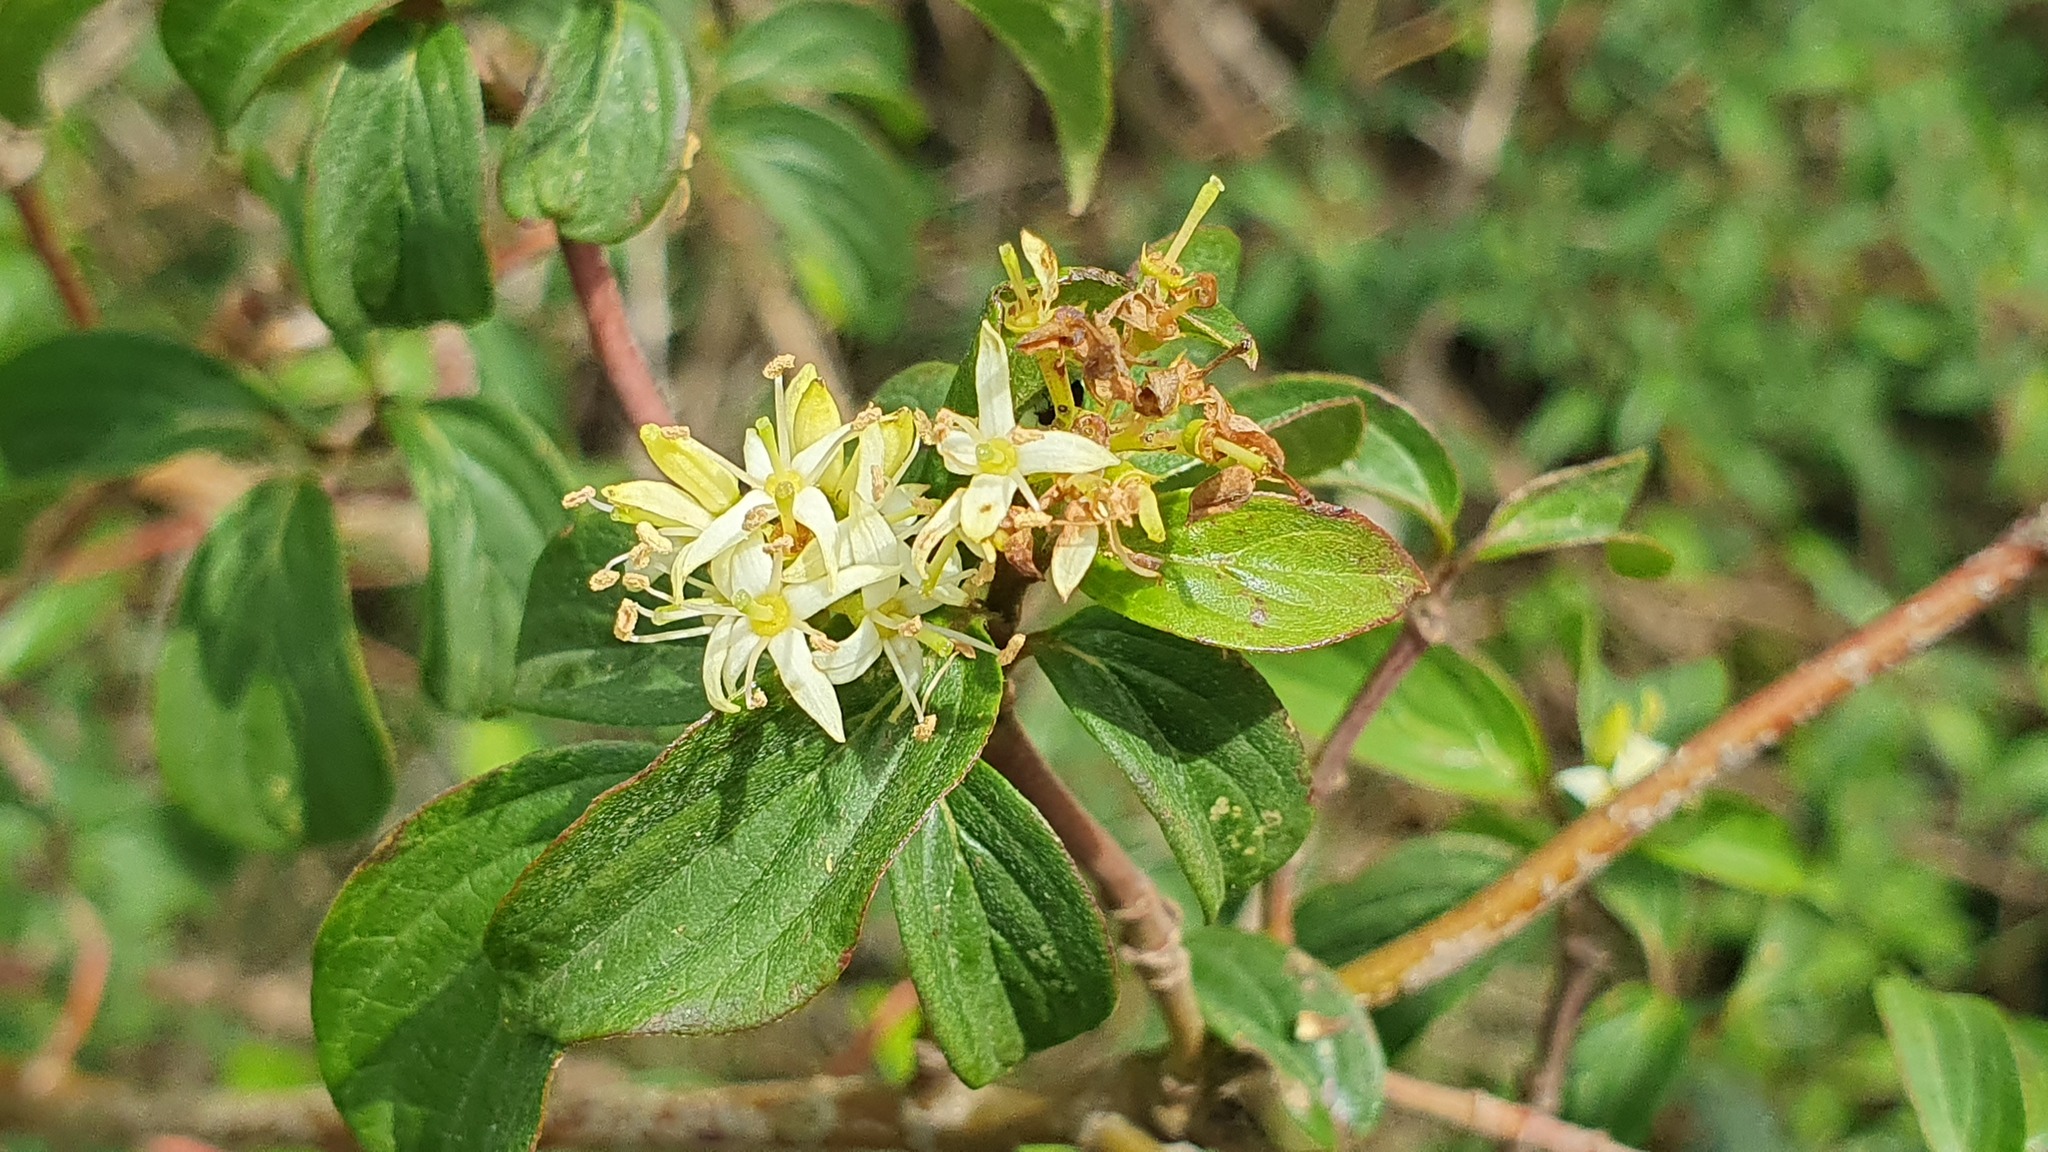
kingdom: Plantae
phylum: Tracheophyta
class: Magnoliopsida
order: Cornales
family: Cornaceae
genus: Cornus
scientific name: Cornus sanguinea
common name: Dogwood
